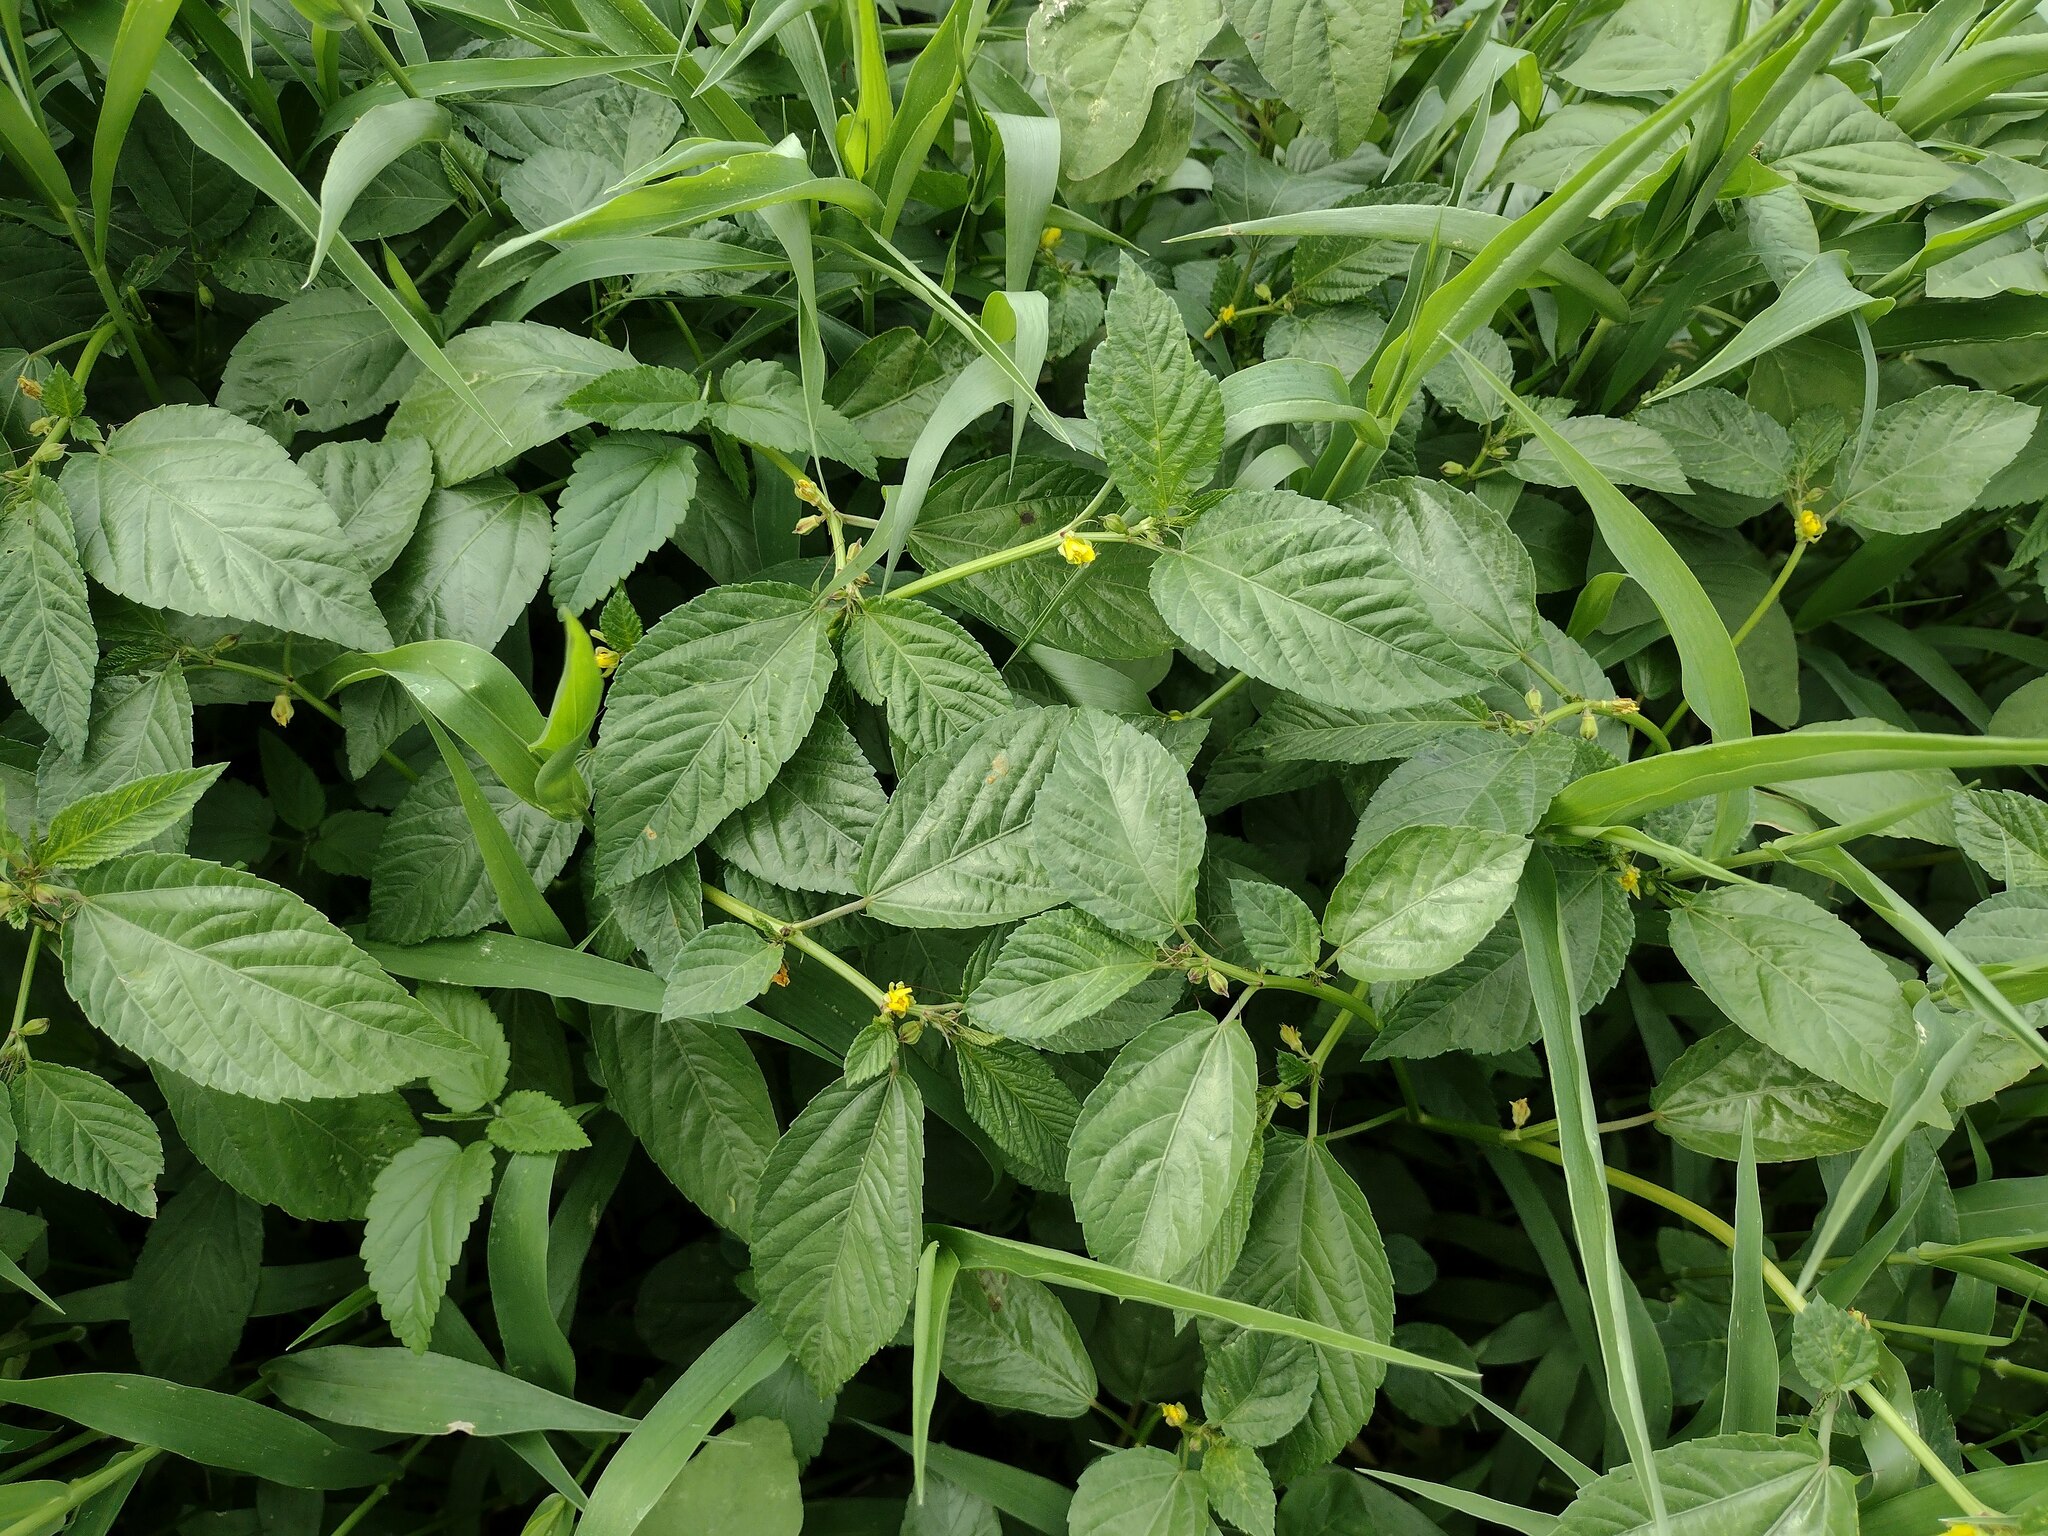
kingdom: Plantae
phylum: Tracheophyta
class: Magnoliopsida
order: Malvales
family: Malvaceae
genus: Corchorus
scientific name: Corchorus olitorius
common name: Tossa jute
